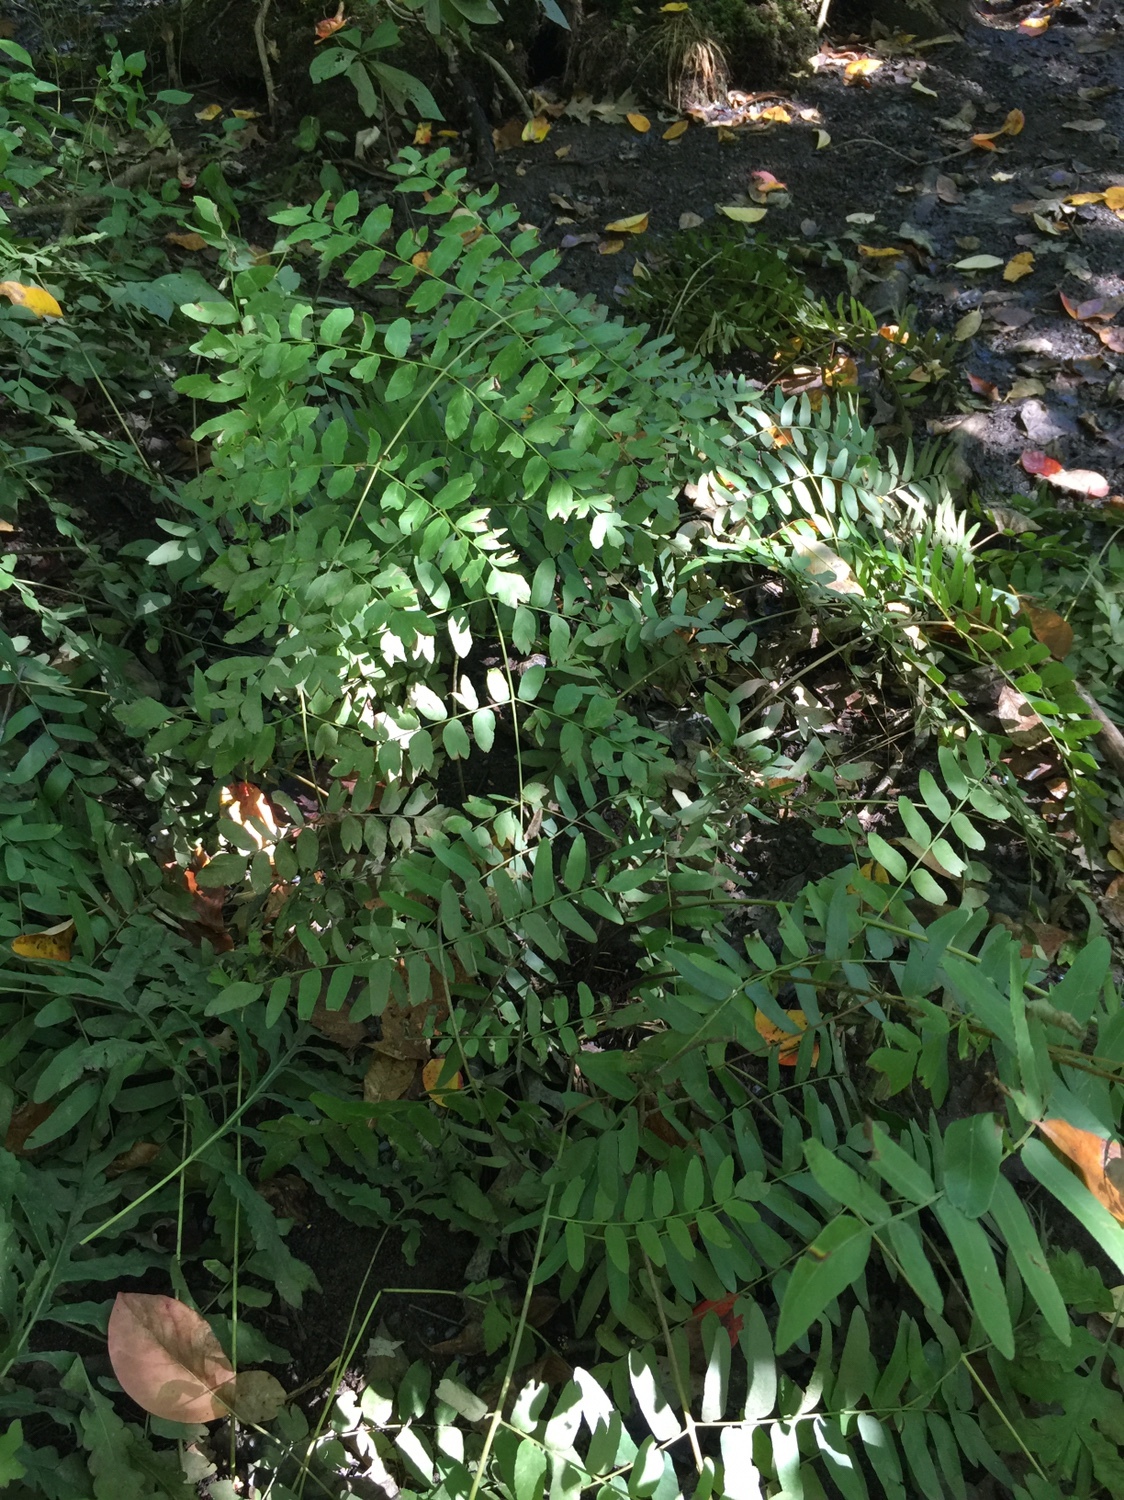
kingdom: Plantae
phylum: Tracheophyta
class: Polypodiopsida
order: Osmundales
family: Osmundaceae
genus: Osmunda
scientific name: Osmunda spectabilis
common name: American royal fern
